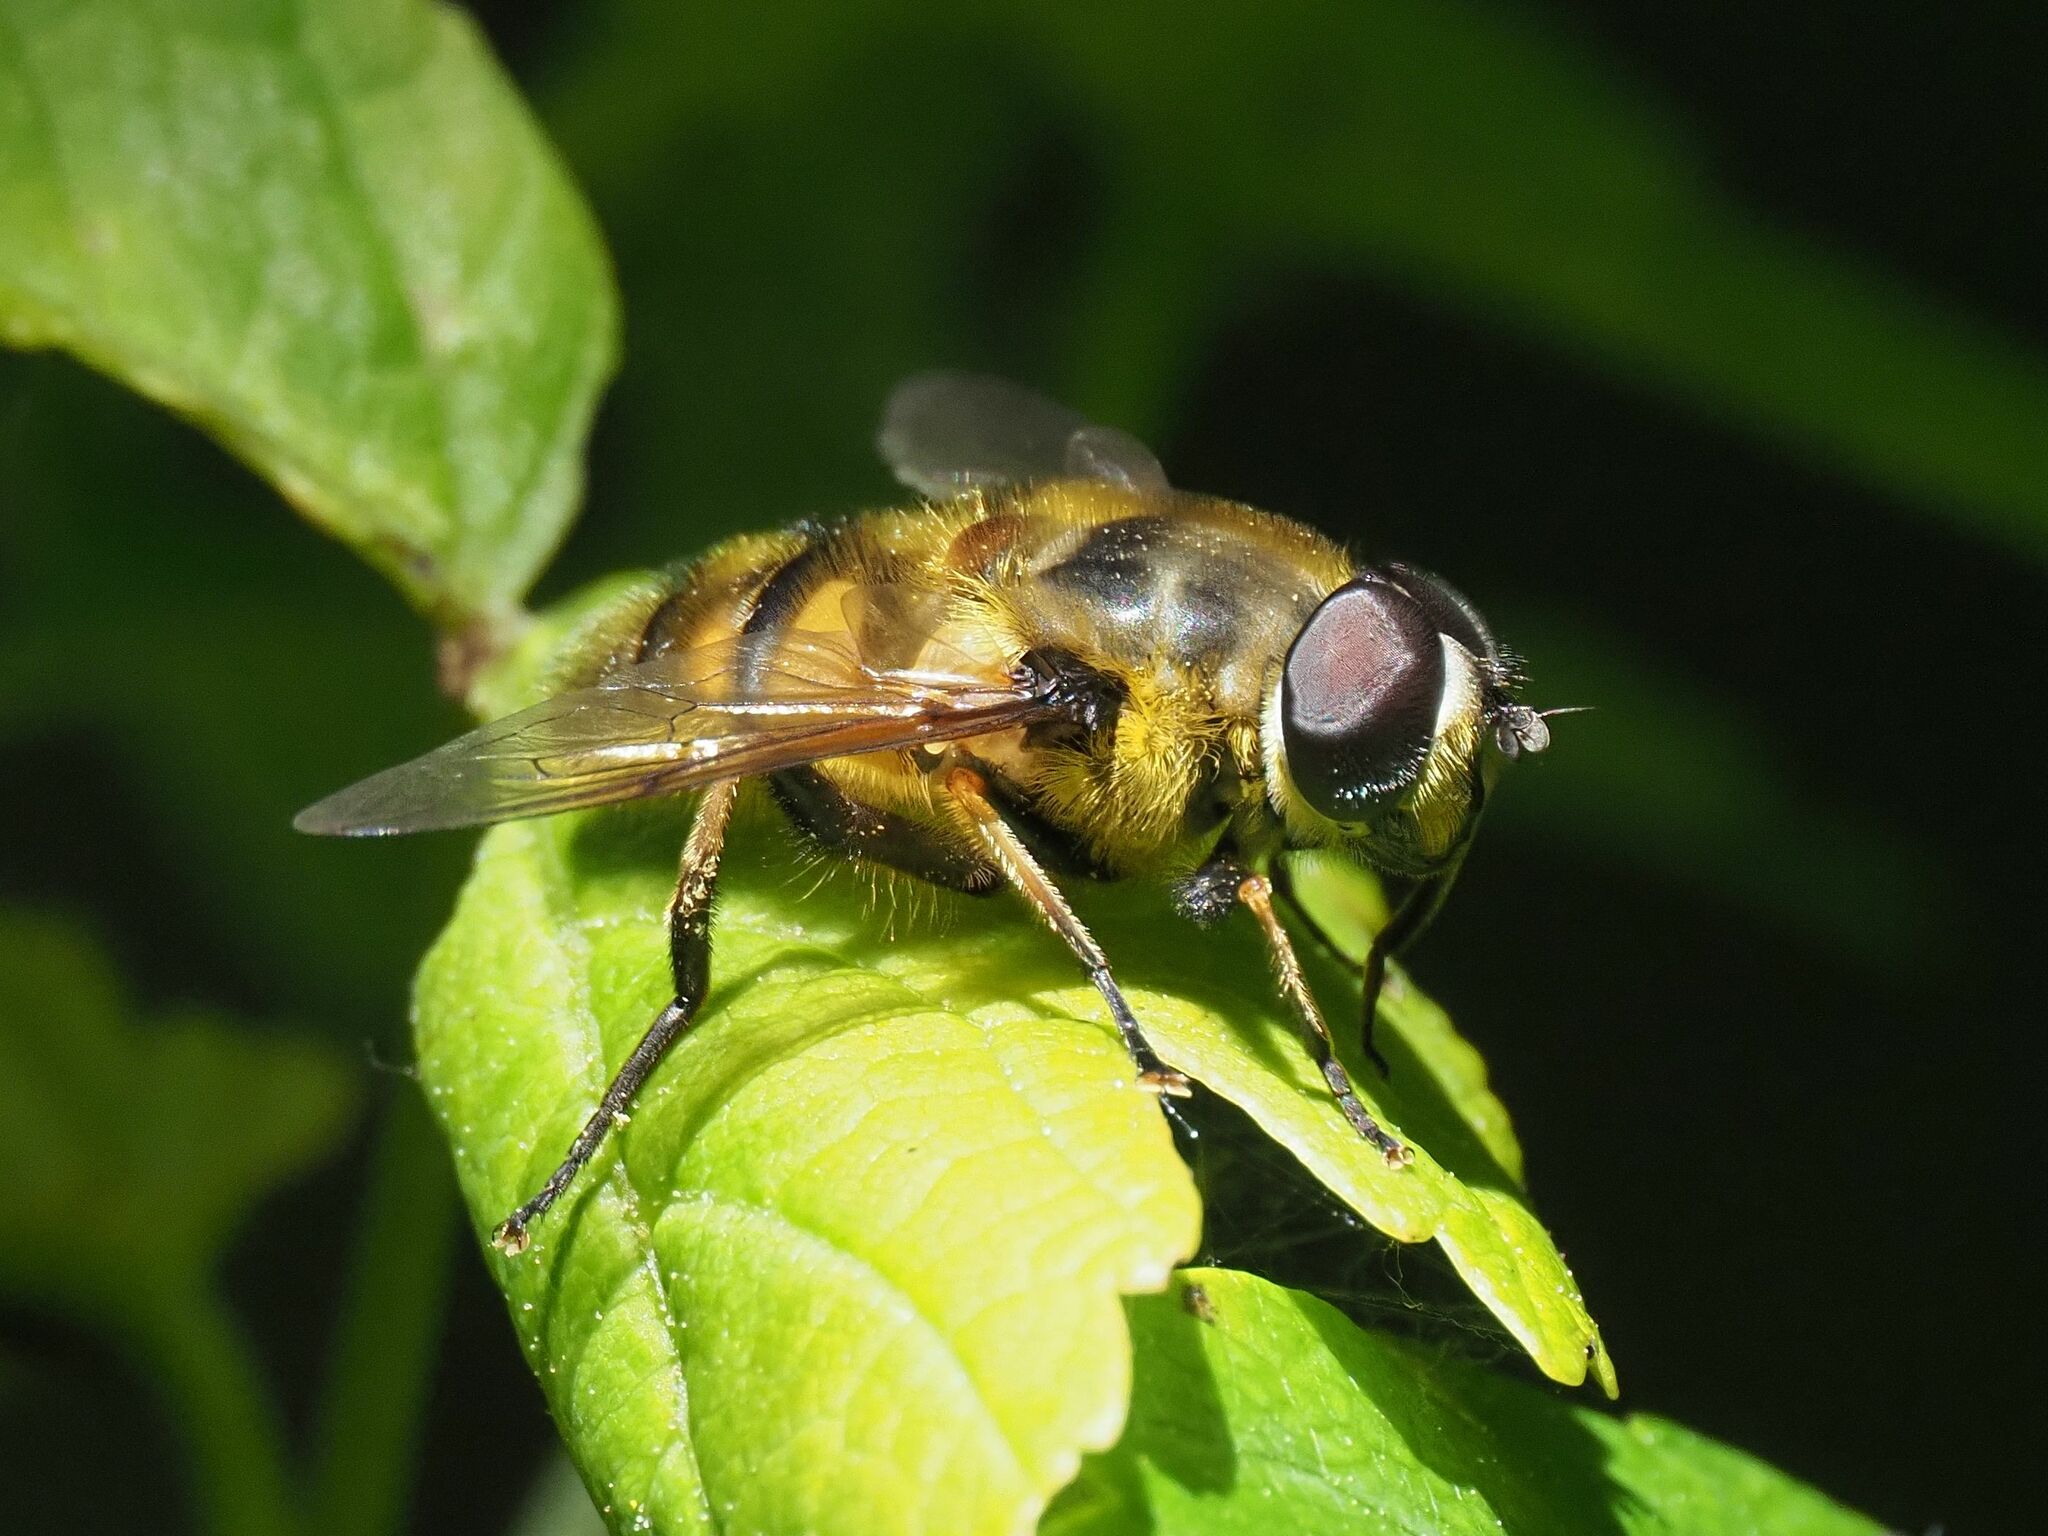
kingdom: Animalia
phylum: Arthropoda
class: Insecta
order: Diptera
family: Syrphidae
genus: Myathropa
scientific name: Myathropa florea
